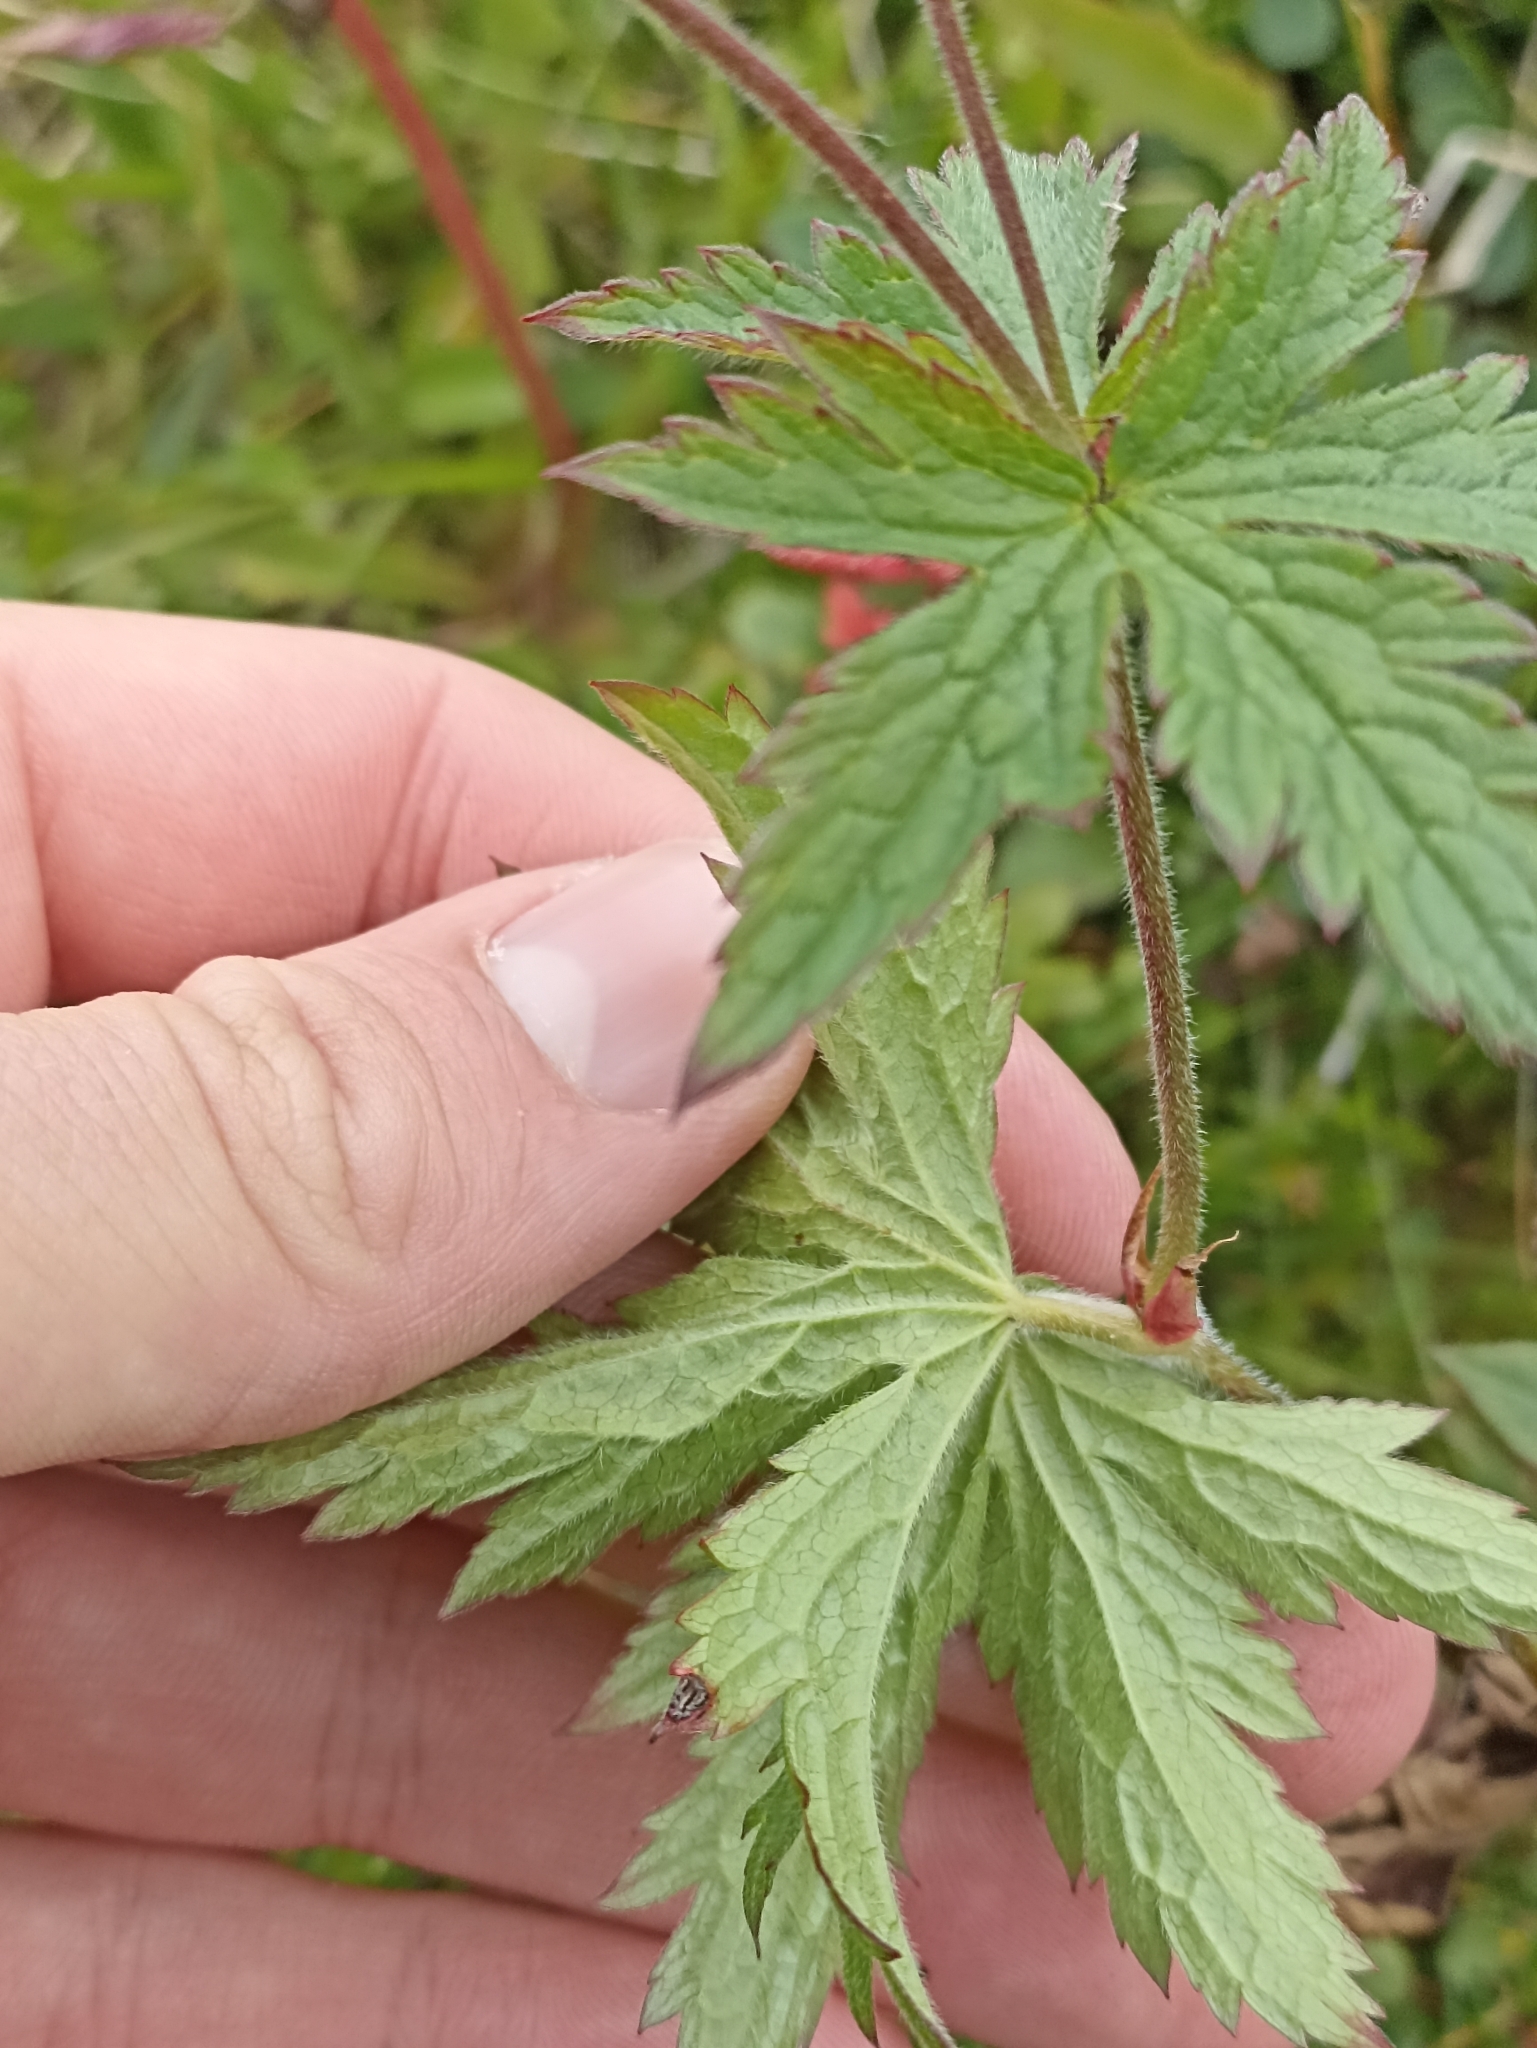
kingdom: Plantae
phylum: Tracheophyta
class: Magnoliopsida
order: Geraniales
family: Geraniaceae
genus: Geranium
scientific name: Geranium sylvaticum
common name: Wood crane's-bill
